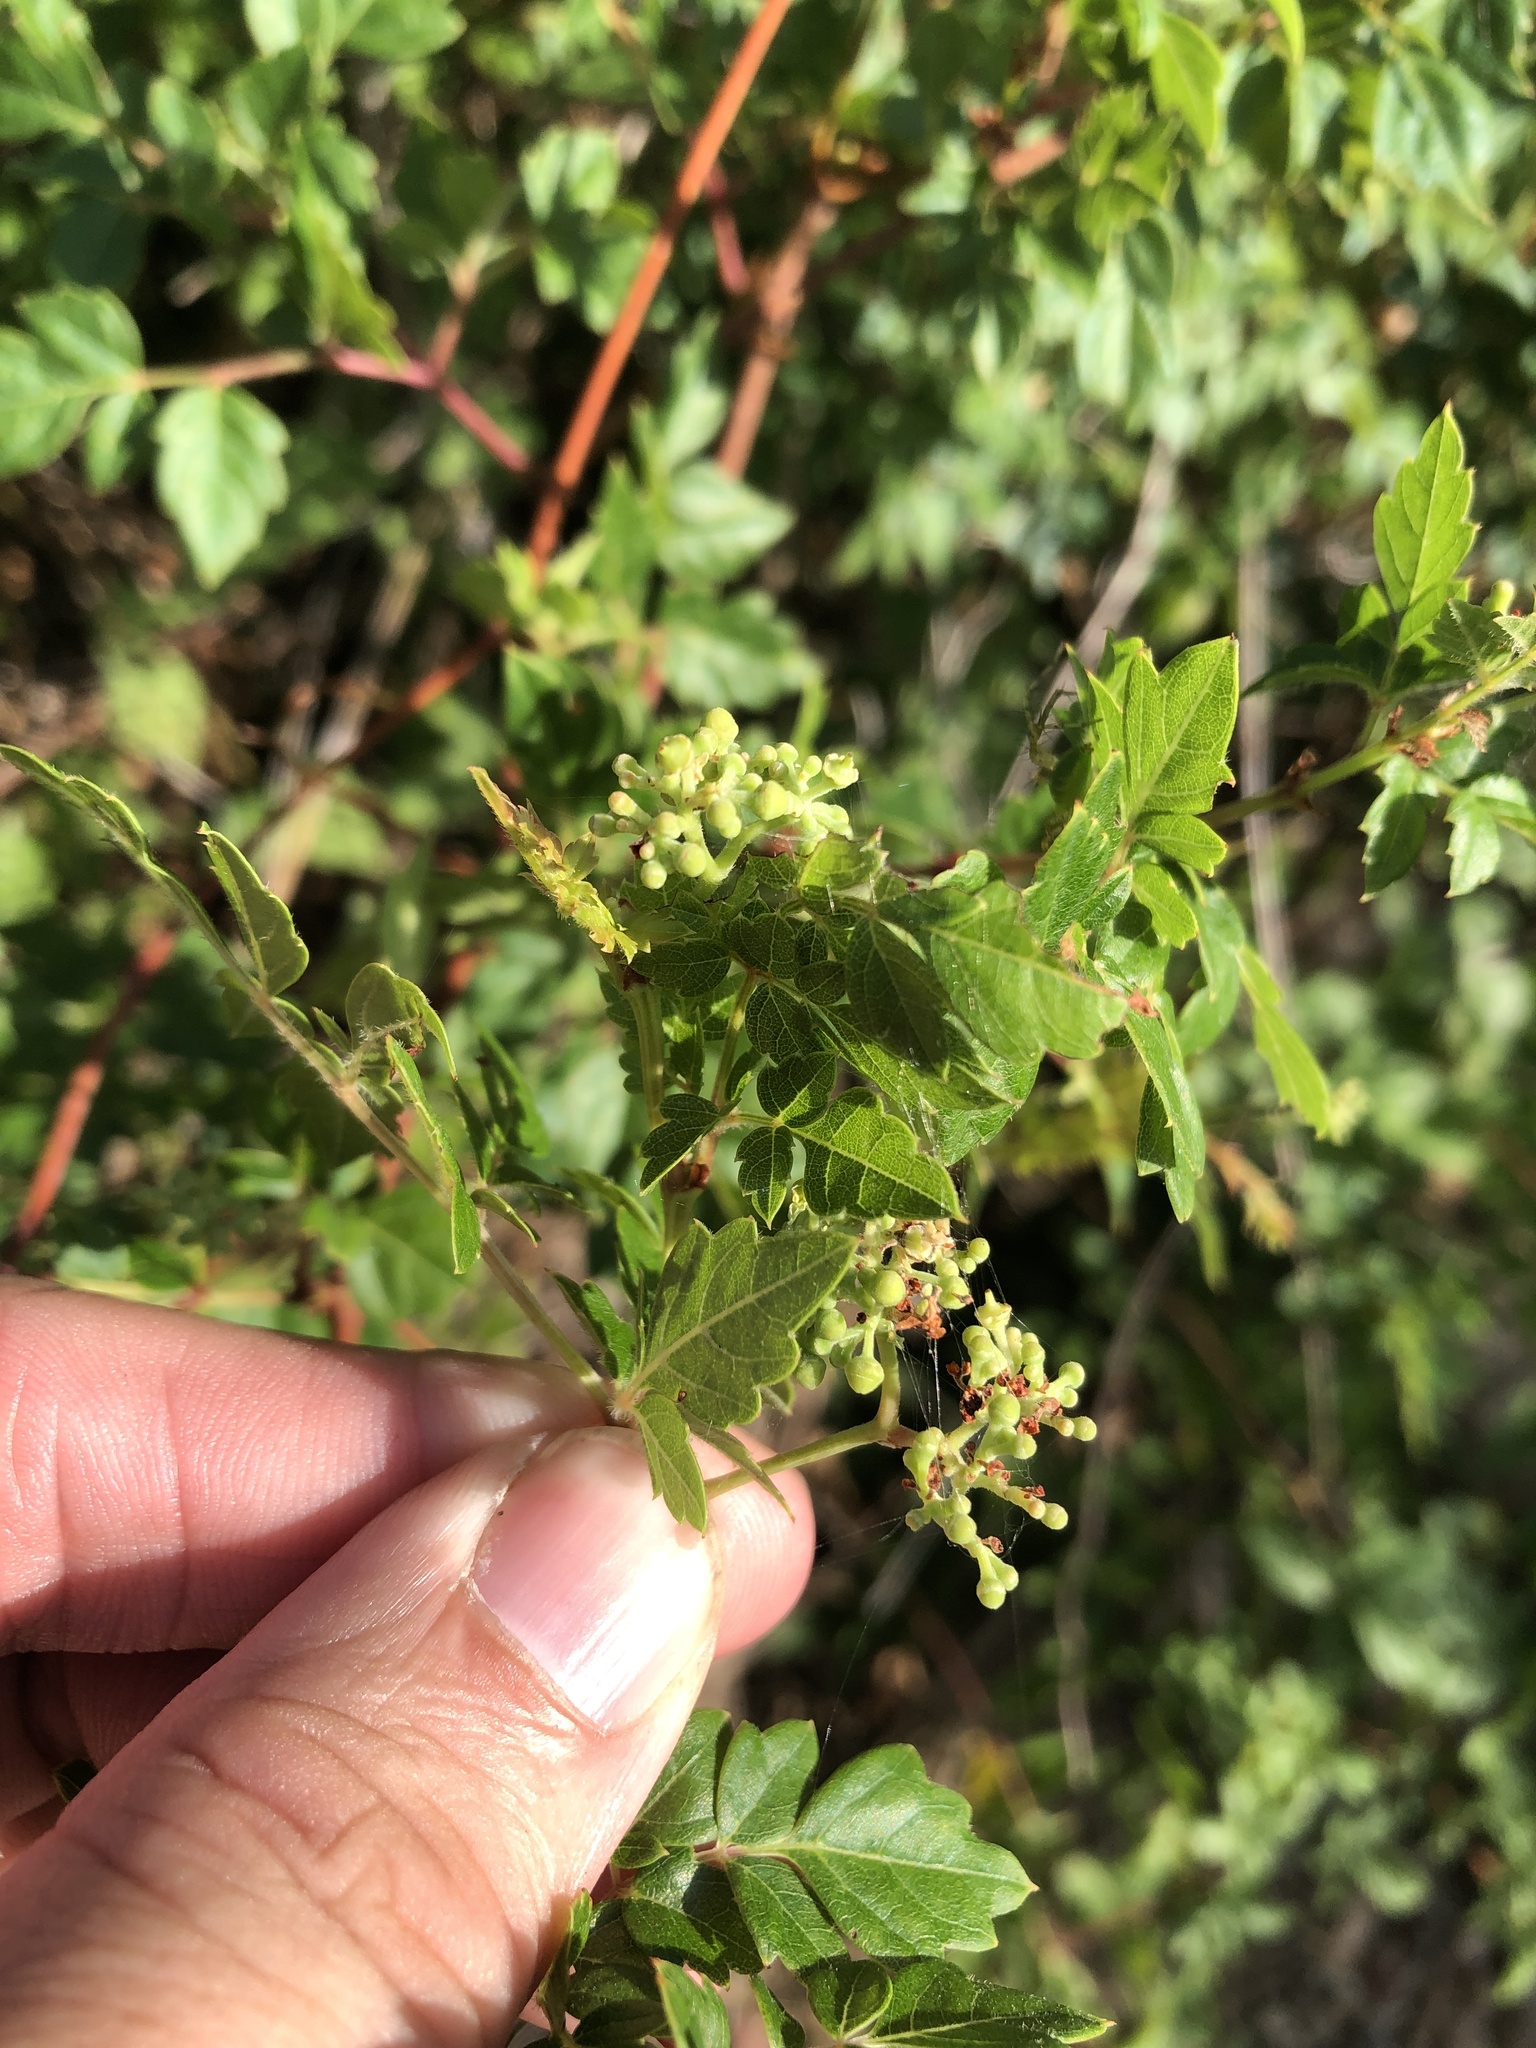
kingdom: Plantae
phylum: Tracheophyta
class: Magnoliopsida
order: Vitales
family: Vitaceae
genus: Nekemias
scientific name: Nekemias arborea
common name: Peppervine
